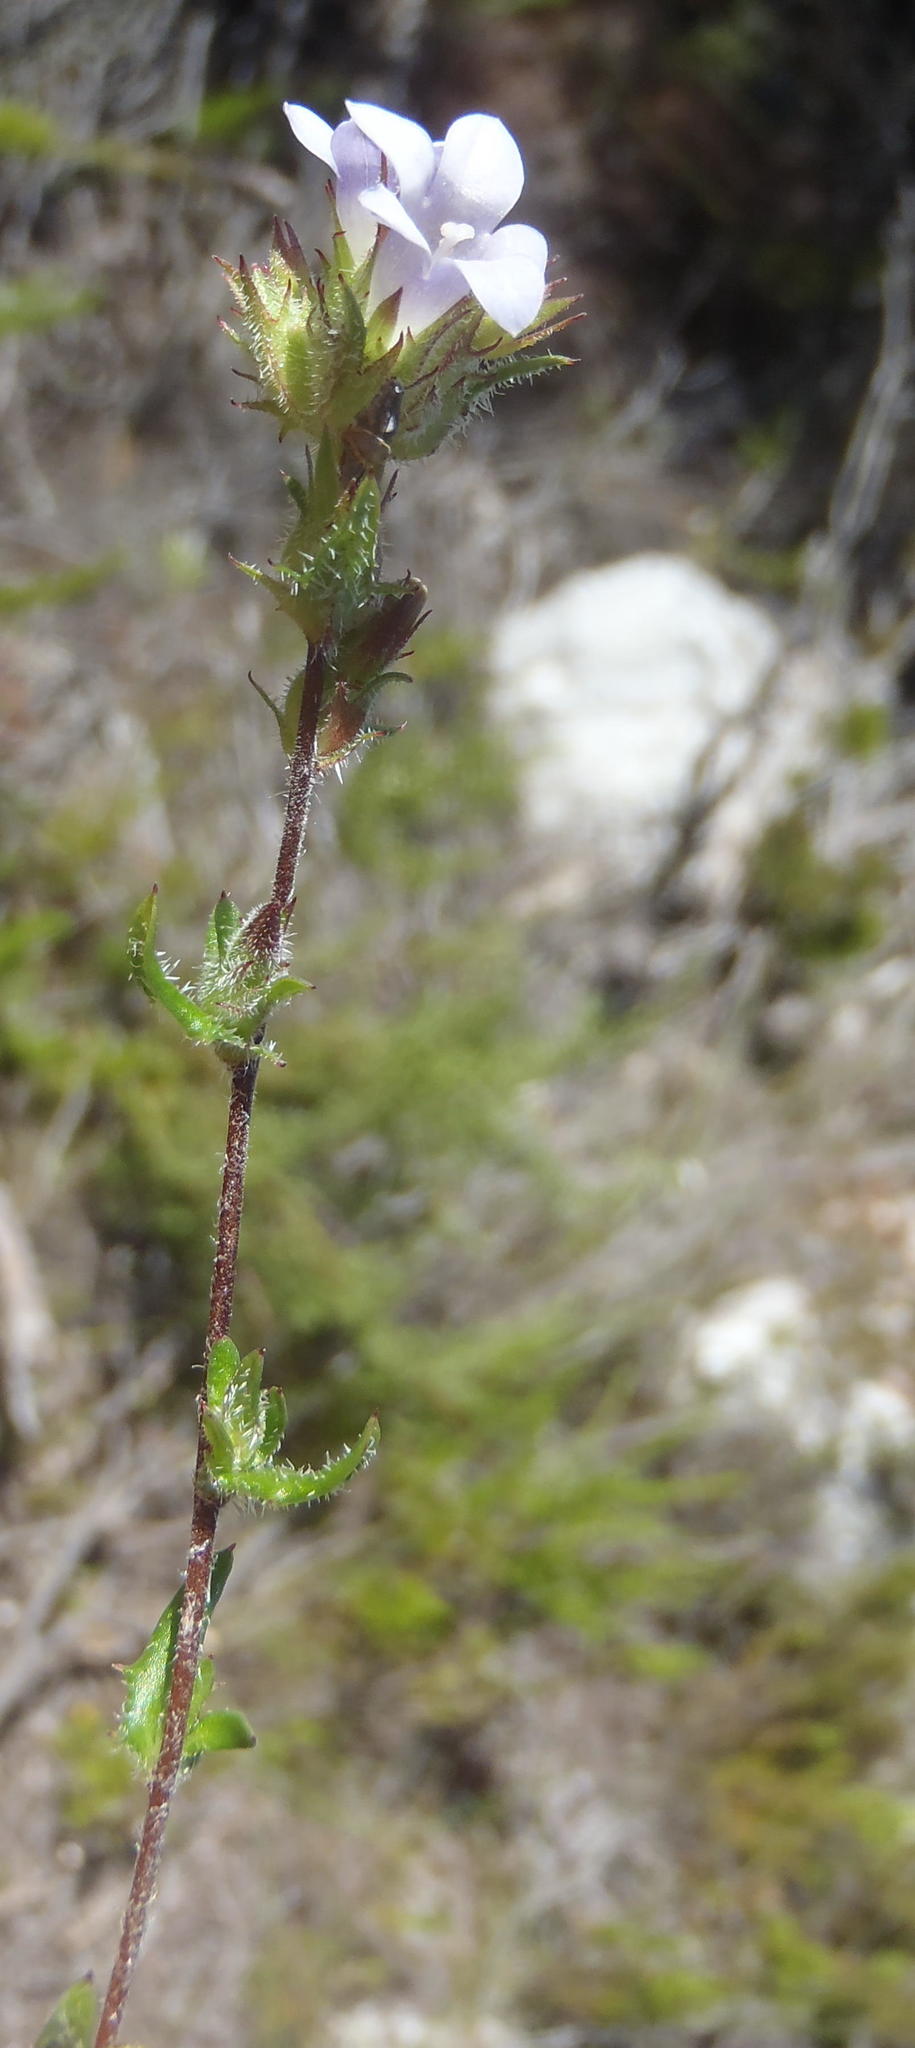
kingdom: Plantae
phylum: Tracheophyta
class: Magnoliopsida
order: Asterales
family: Campanulaceae
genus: Prismatocarpus
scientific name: Prismatocarpus hispidus
